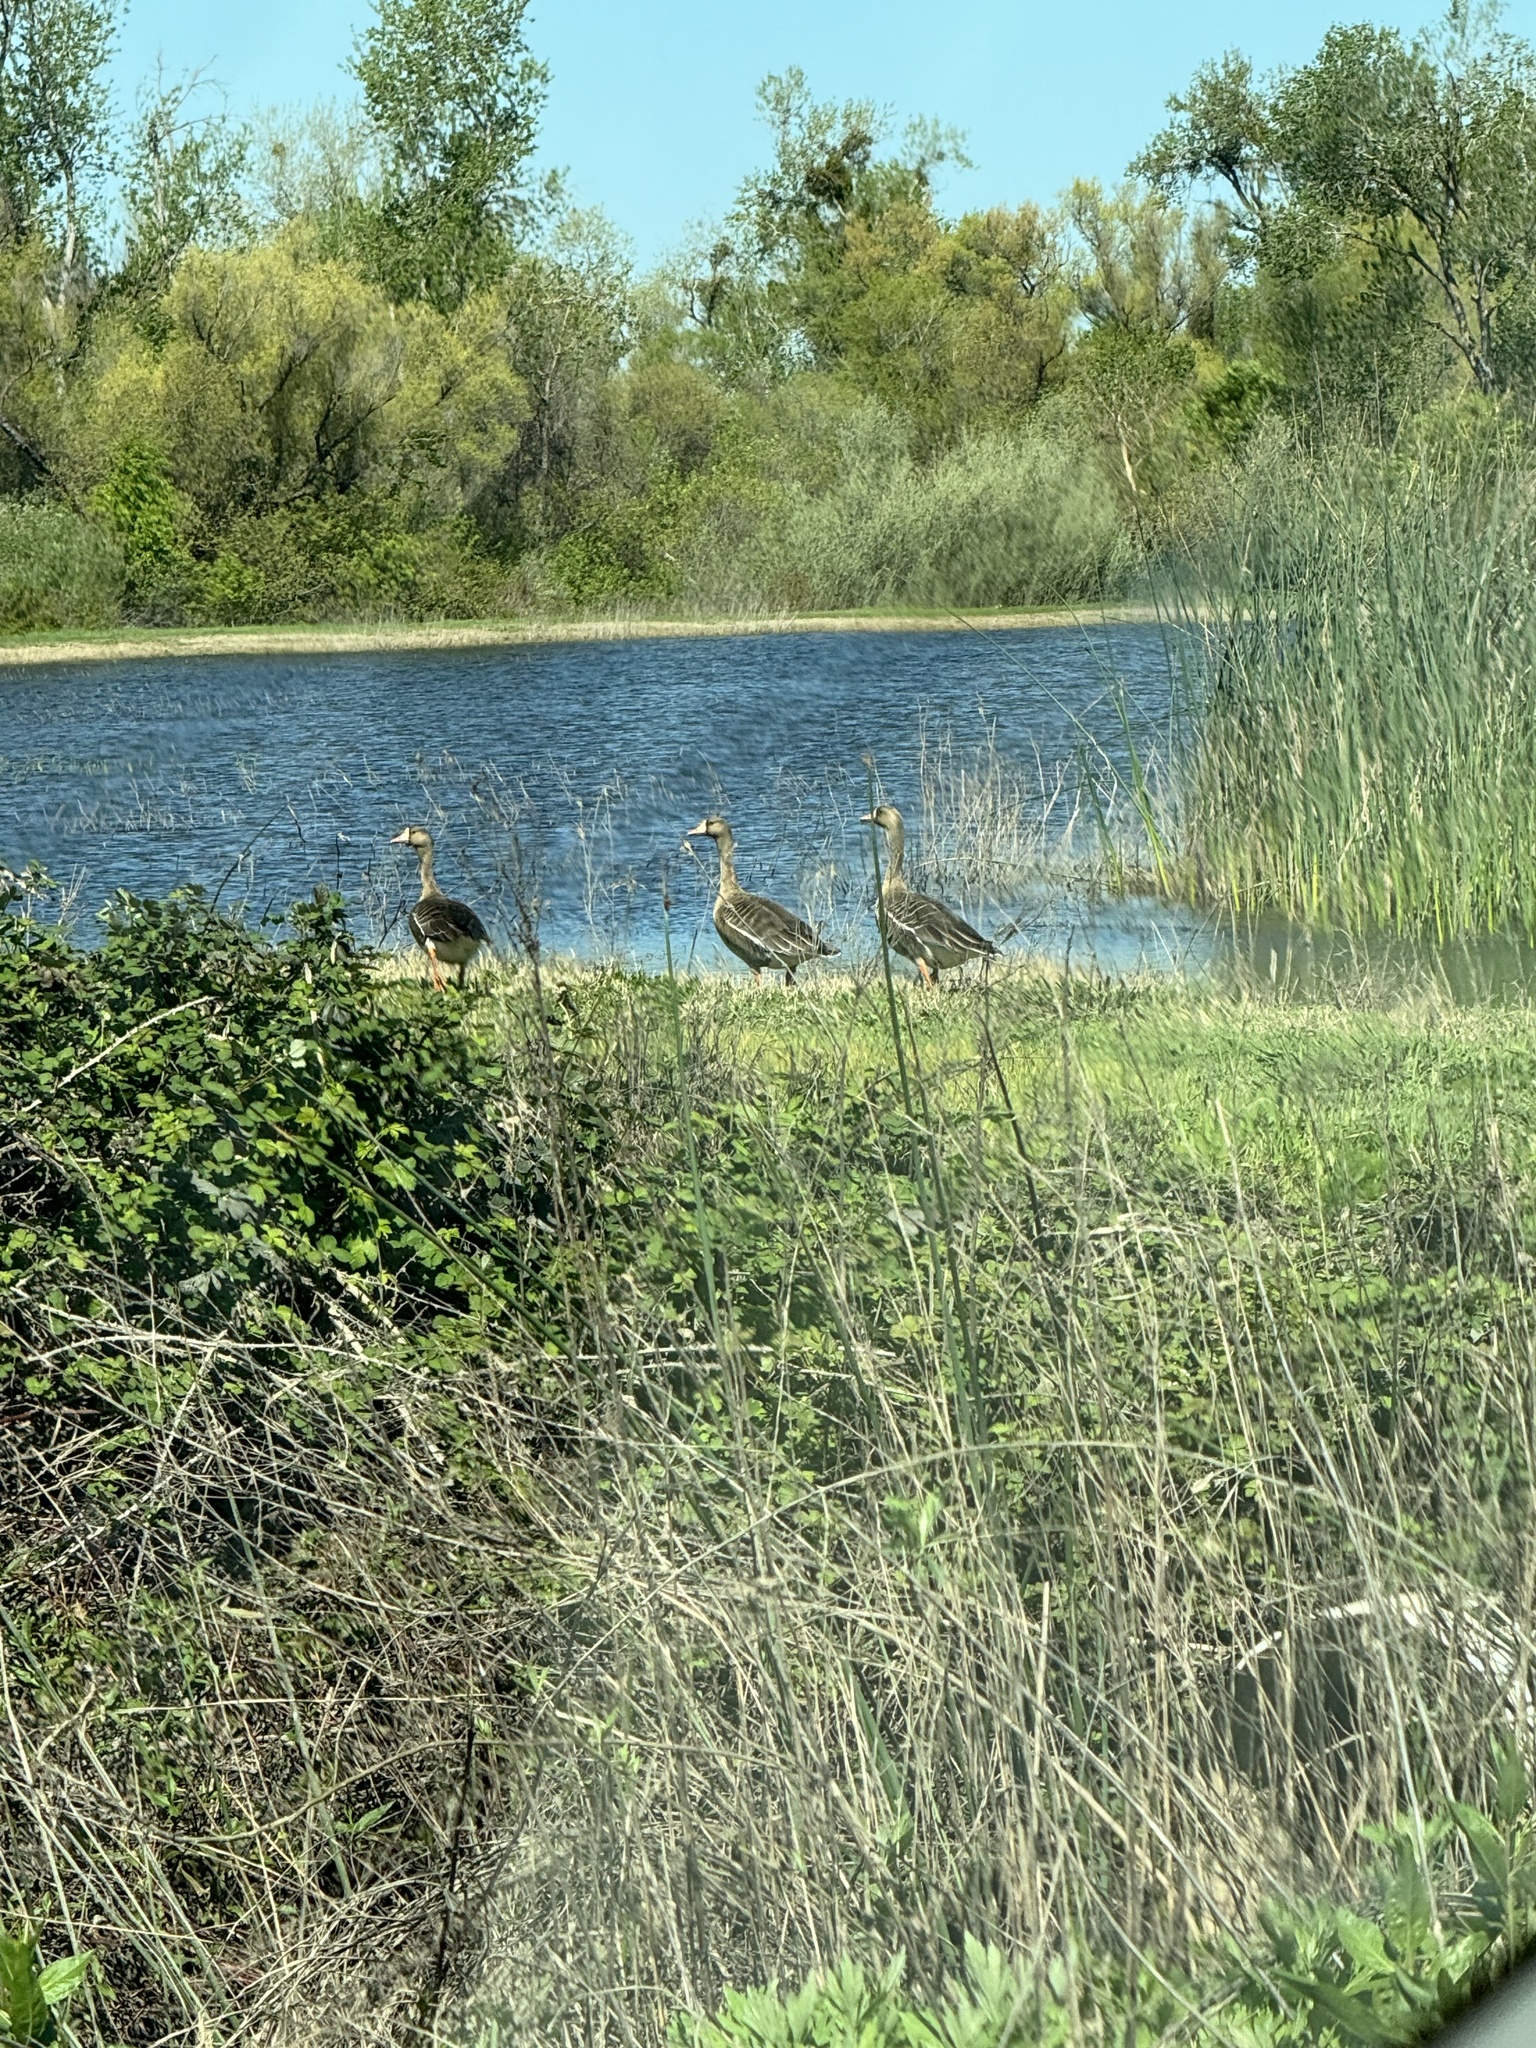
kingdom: Animalia
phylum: Chordata
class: Aves
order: Anseriformes
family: Anatidae
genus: Anser
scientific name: Anser albifrons
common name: Greater white-fronted goose
